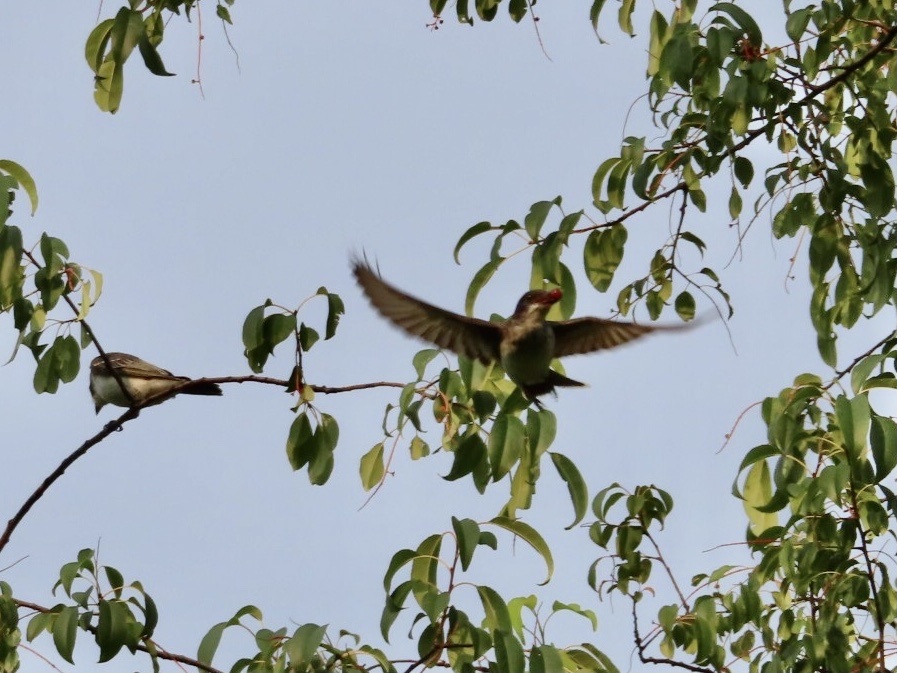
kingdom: Animalia
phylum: Chordata
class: Aves
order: Passeriformes
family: Tyrannidae
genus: Tyrannus
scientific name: Tyrannus tyrannus
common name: Eastern kingbird
